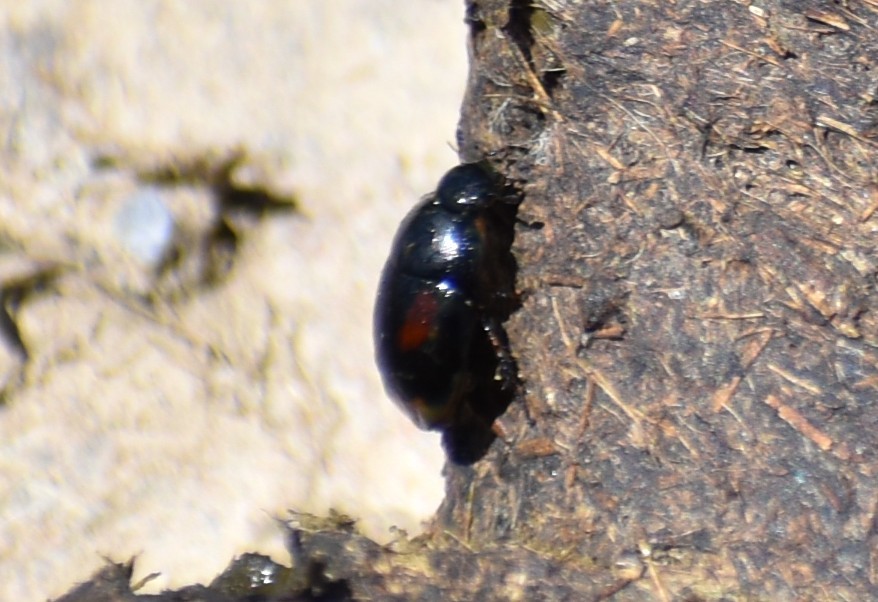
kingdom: Animalia
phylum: Arthropoda
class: Insecta
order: Coleoptera
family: Hydrophilidae
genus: Sphaeridium
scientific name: Sphaeridium scarabaeoides
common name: Water scavenger beetle
